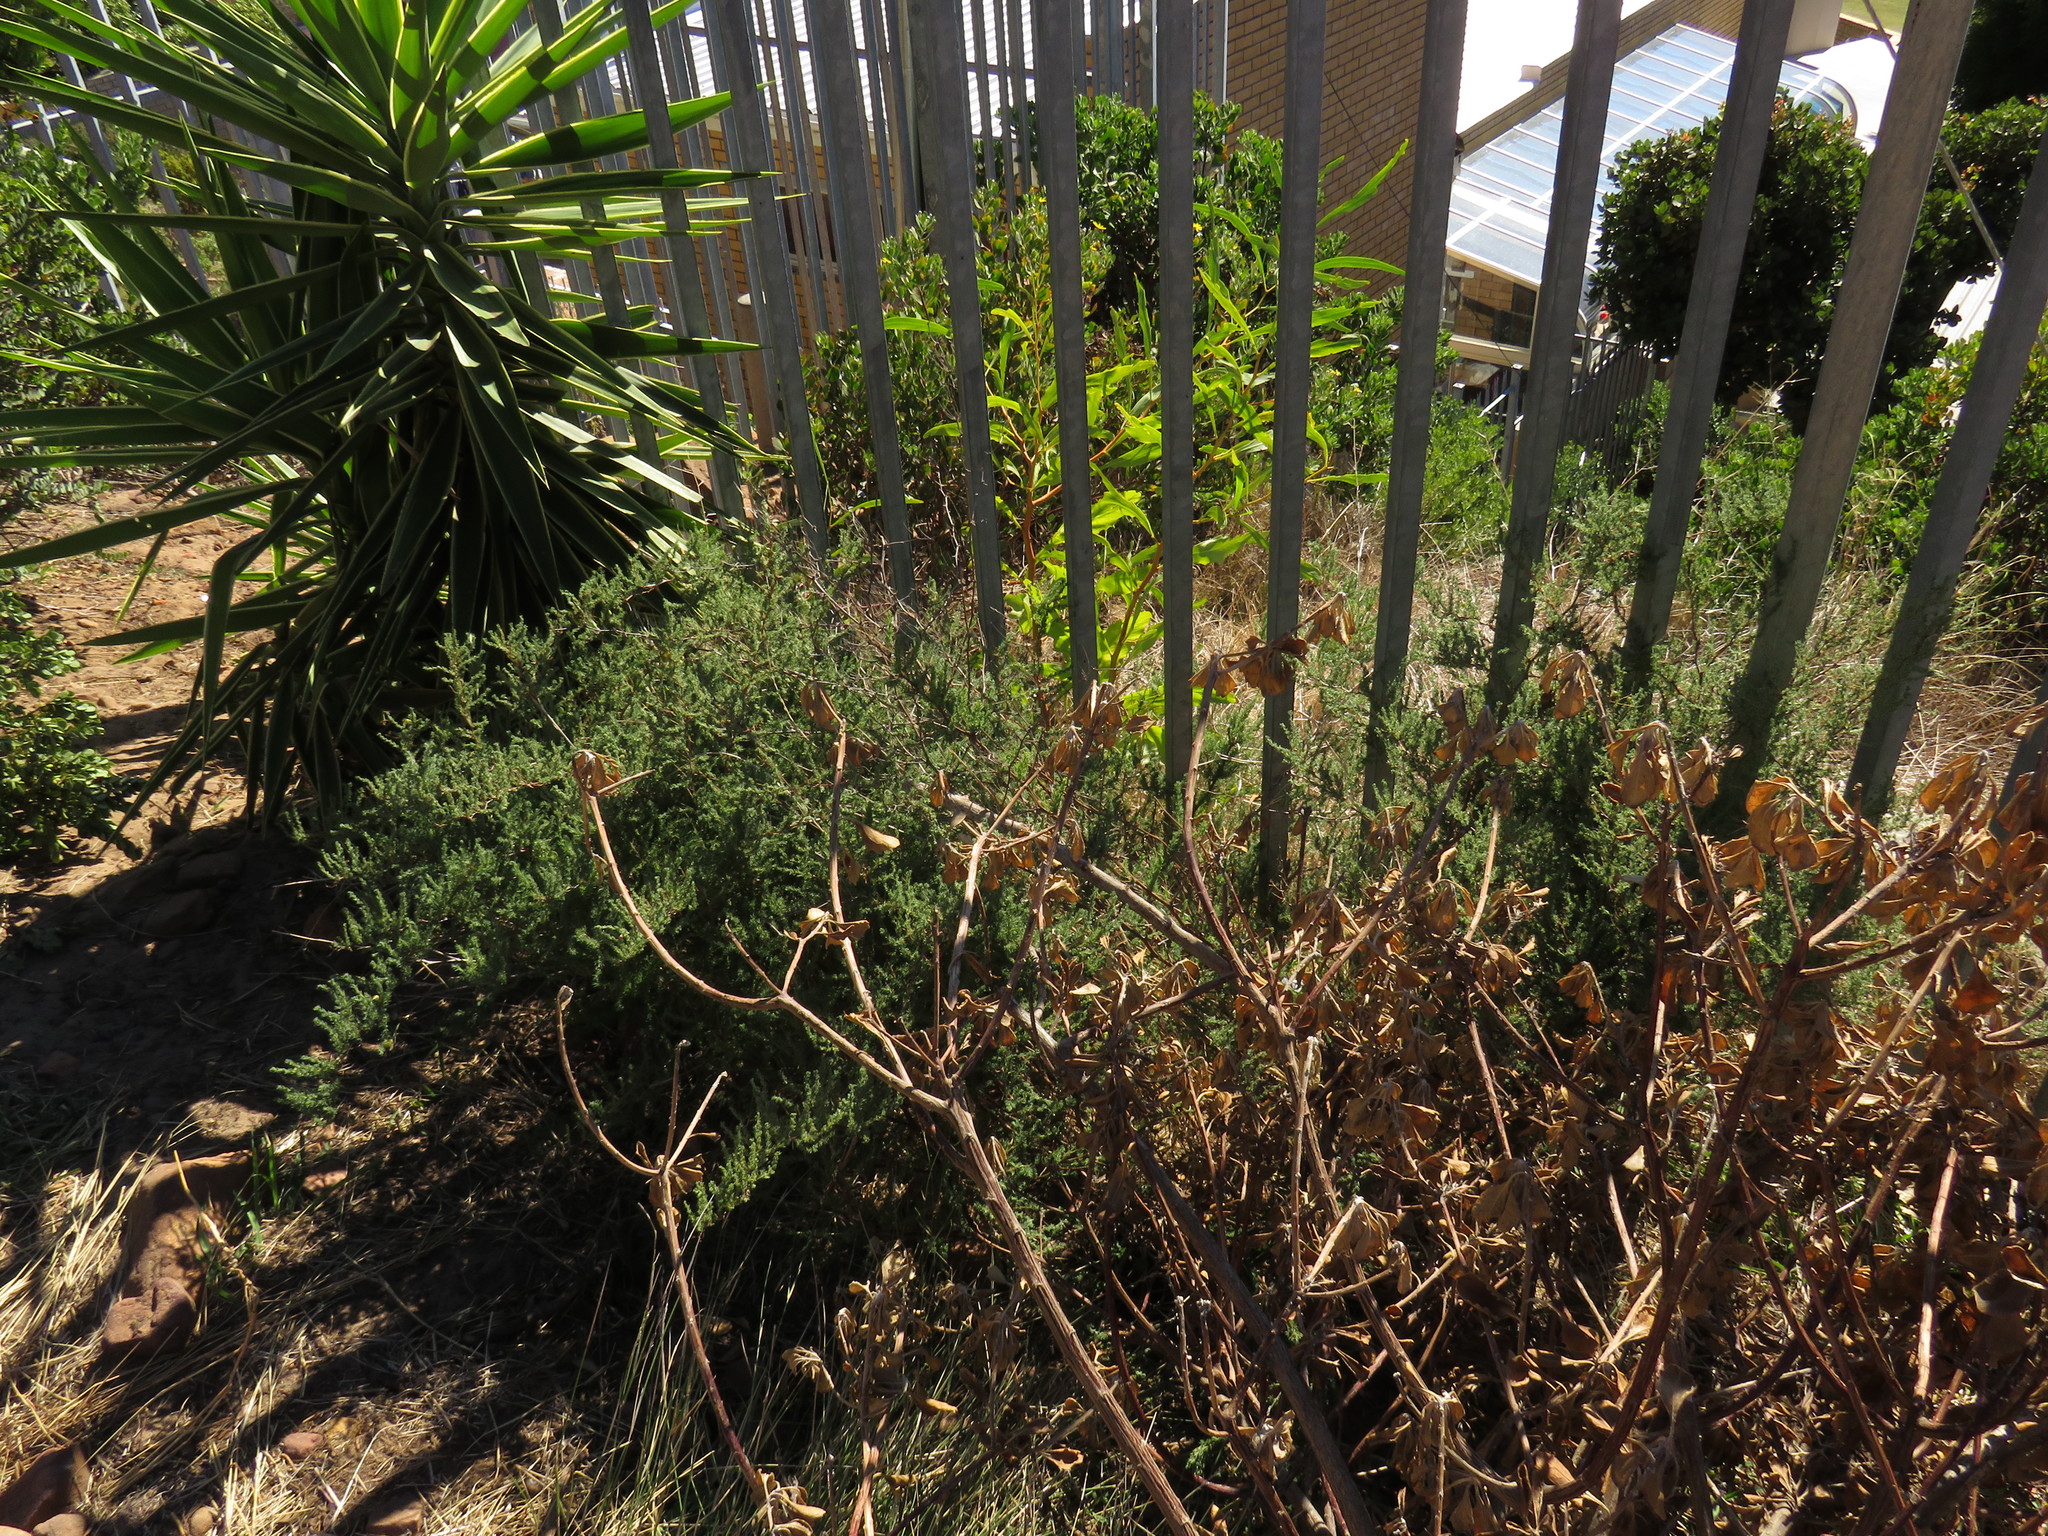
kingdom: Plantae
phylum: Tracheophyta
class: Liliopsida
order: Asparagales
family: Asparagaceae
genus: Asparagus
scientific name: Asparagus capensis
